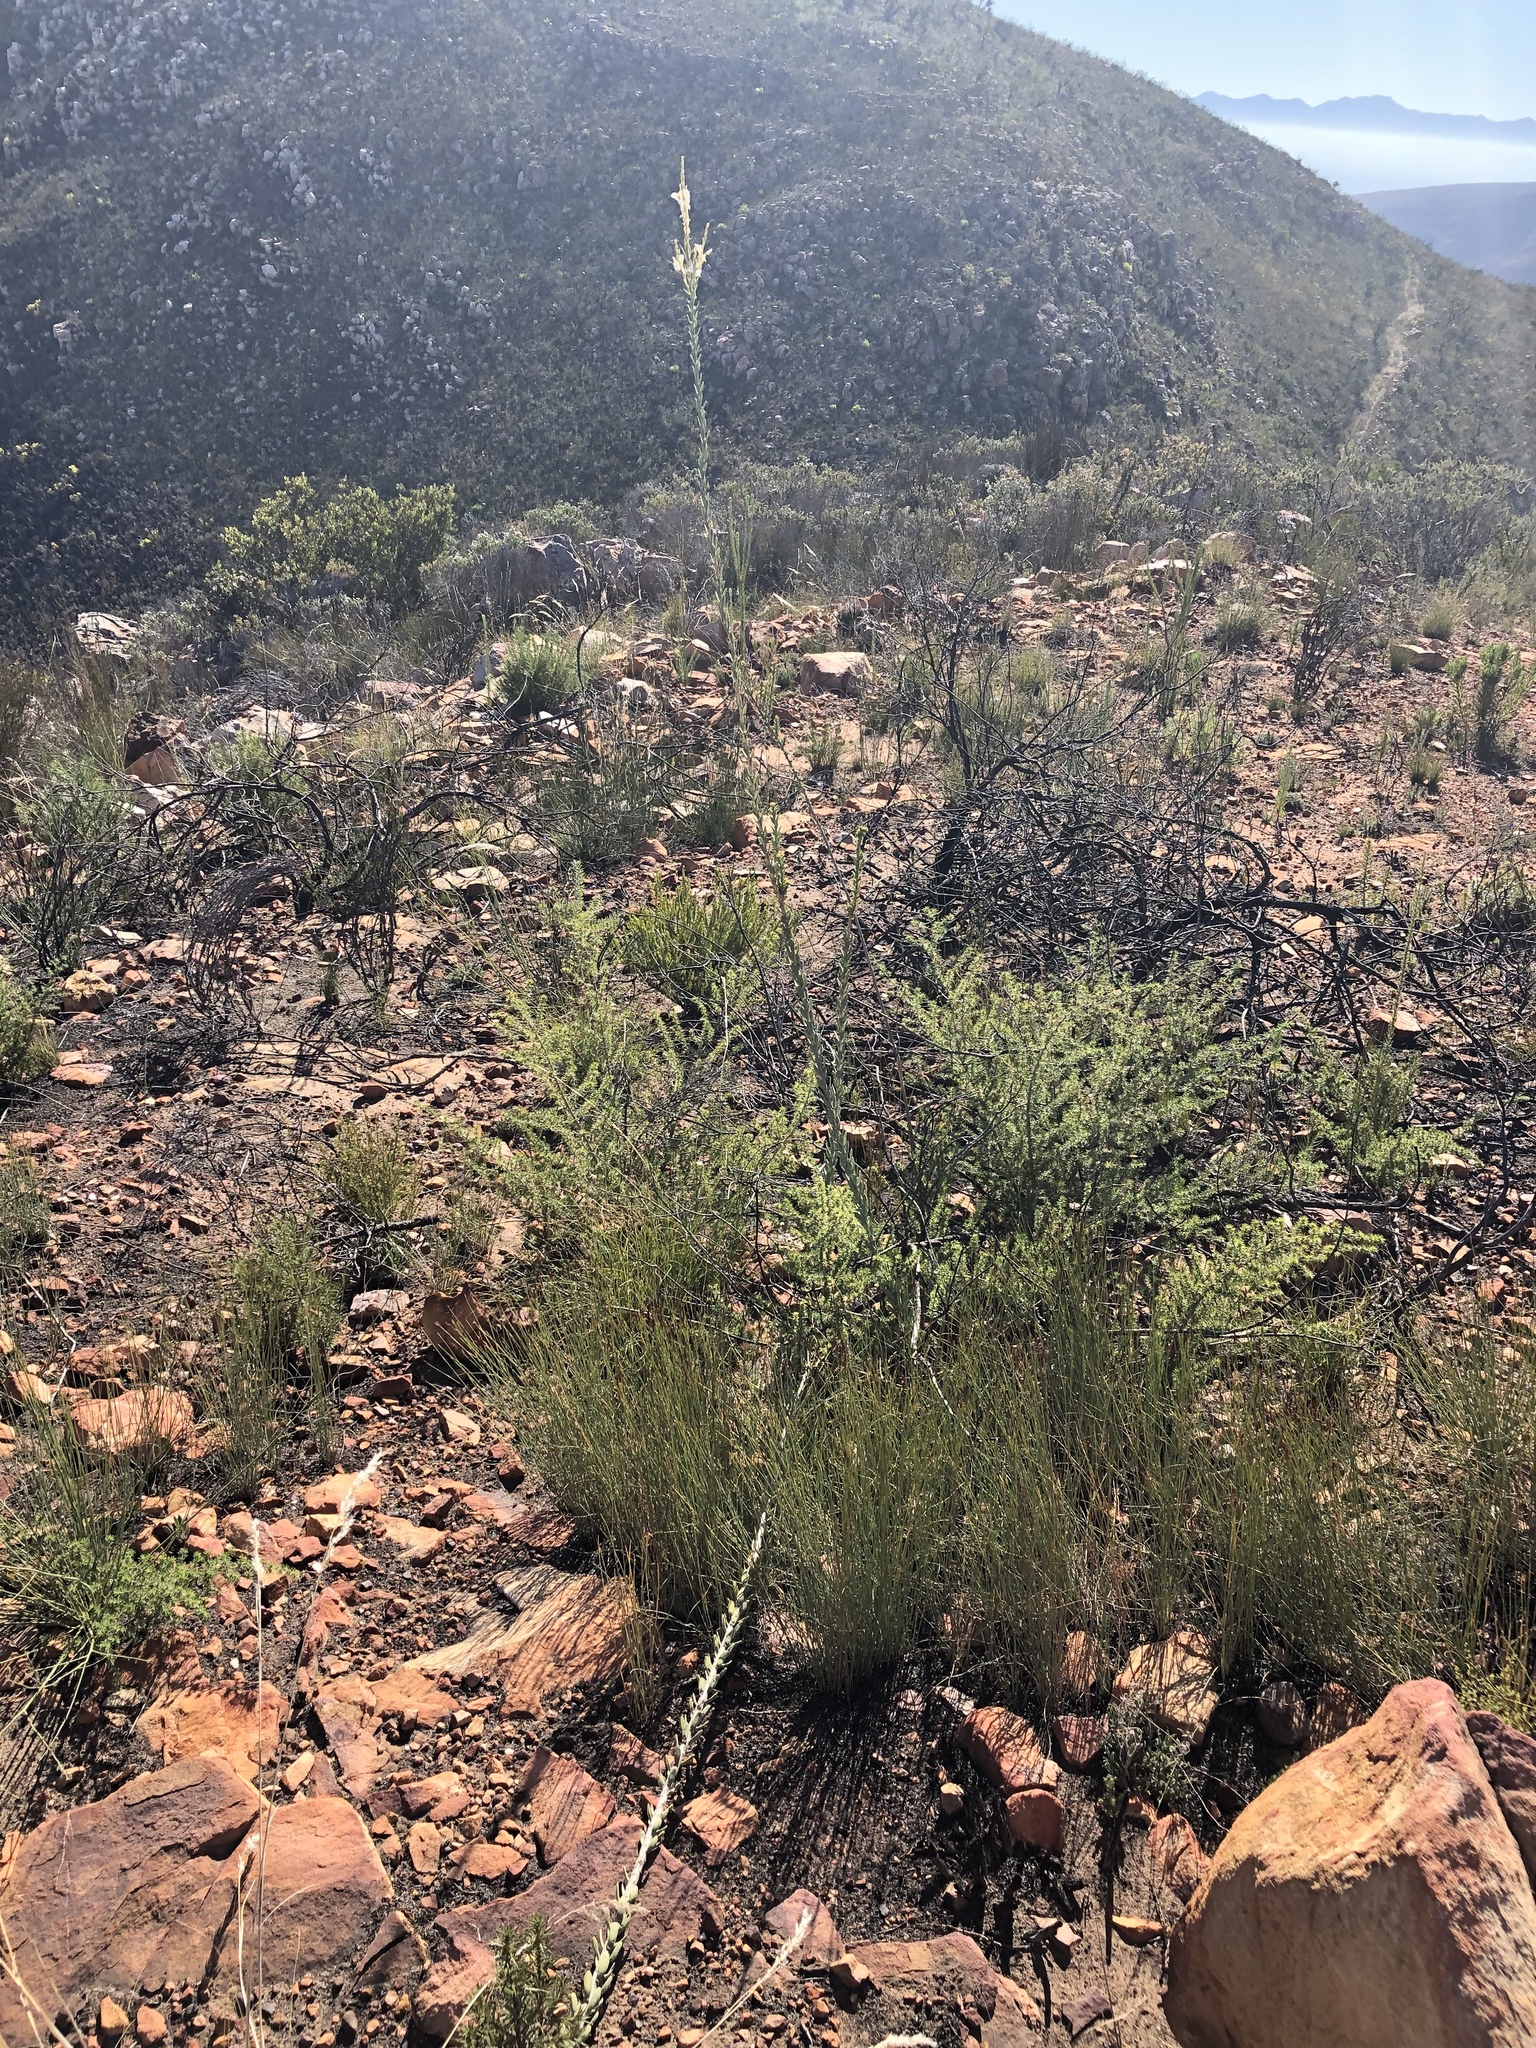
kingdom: Plantae
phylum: Tracheophyta
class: Magnoliopsida
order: Brassicales
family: Brassicaceae
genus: Heliophila
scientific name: Heliophila glauca
